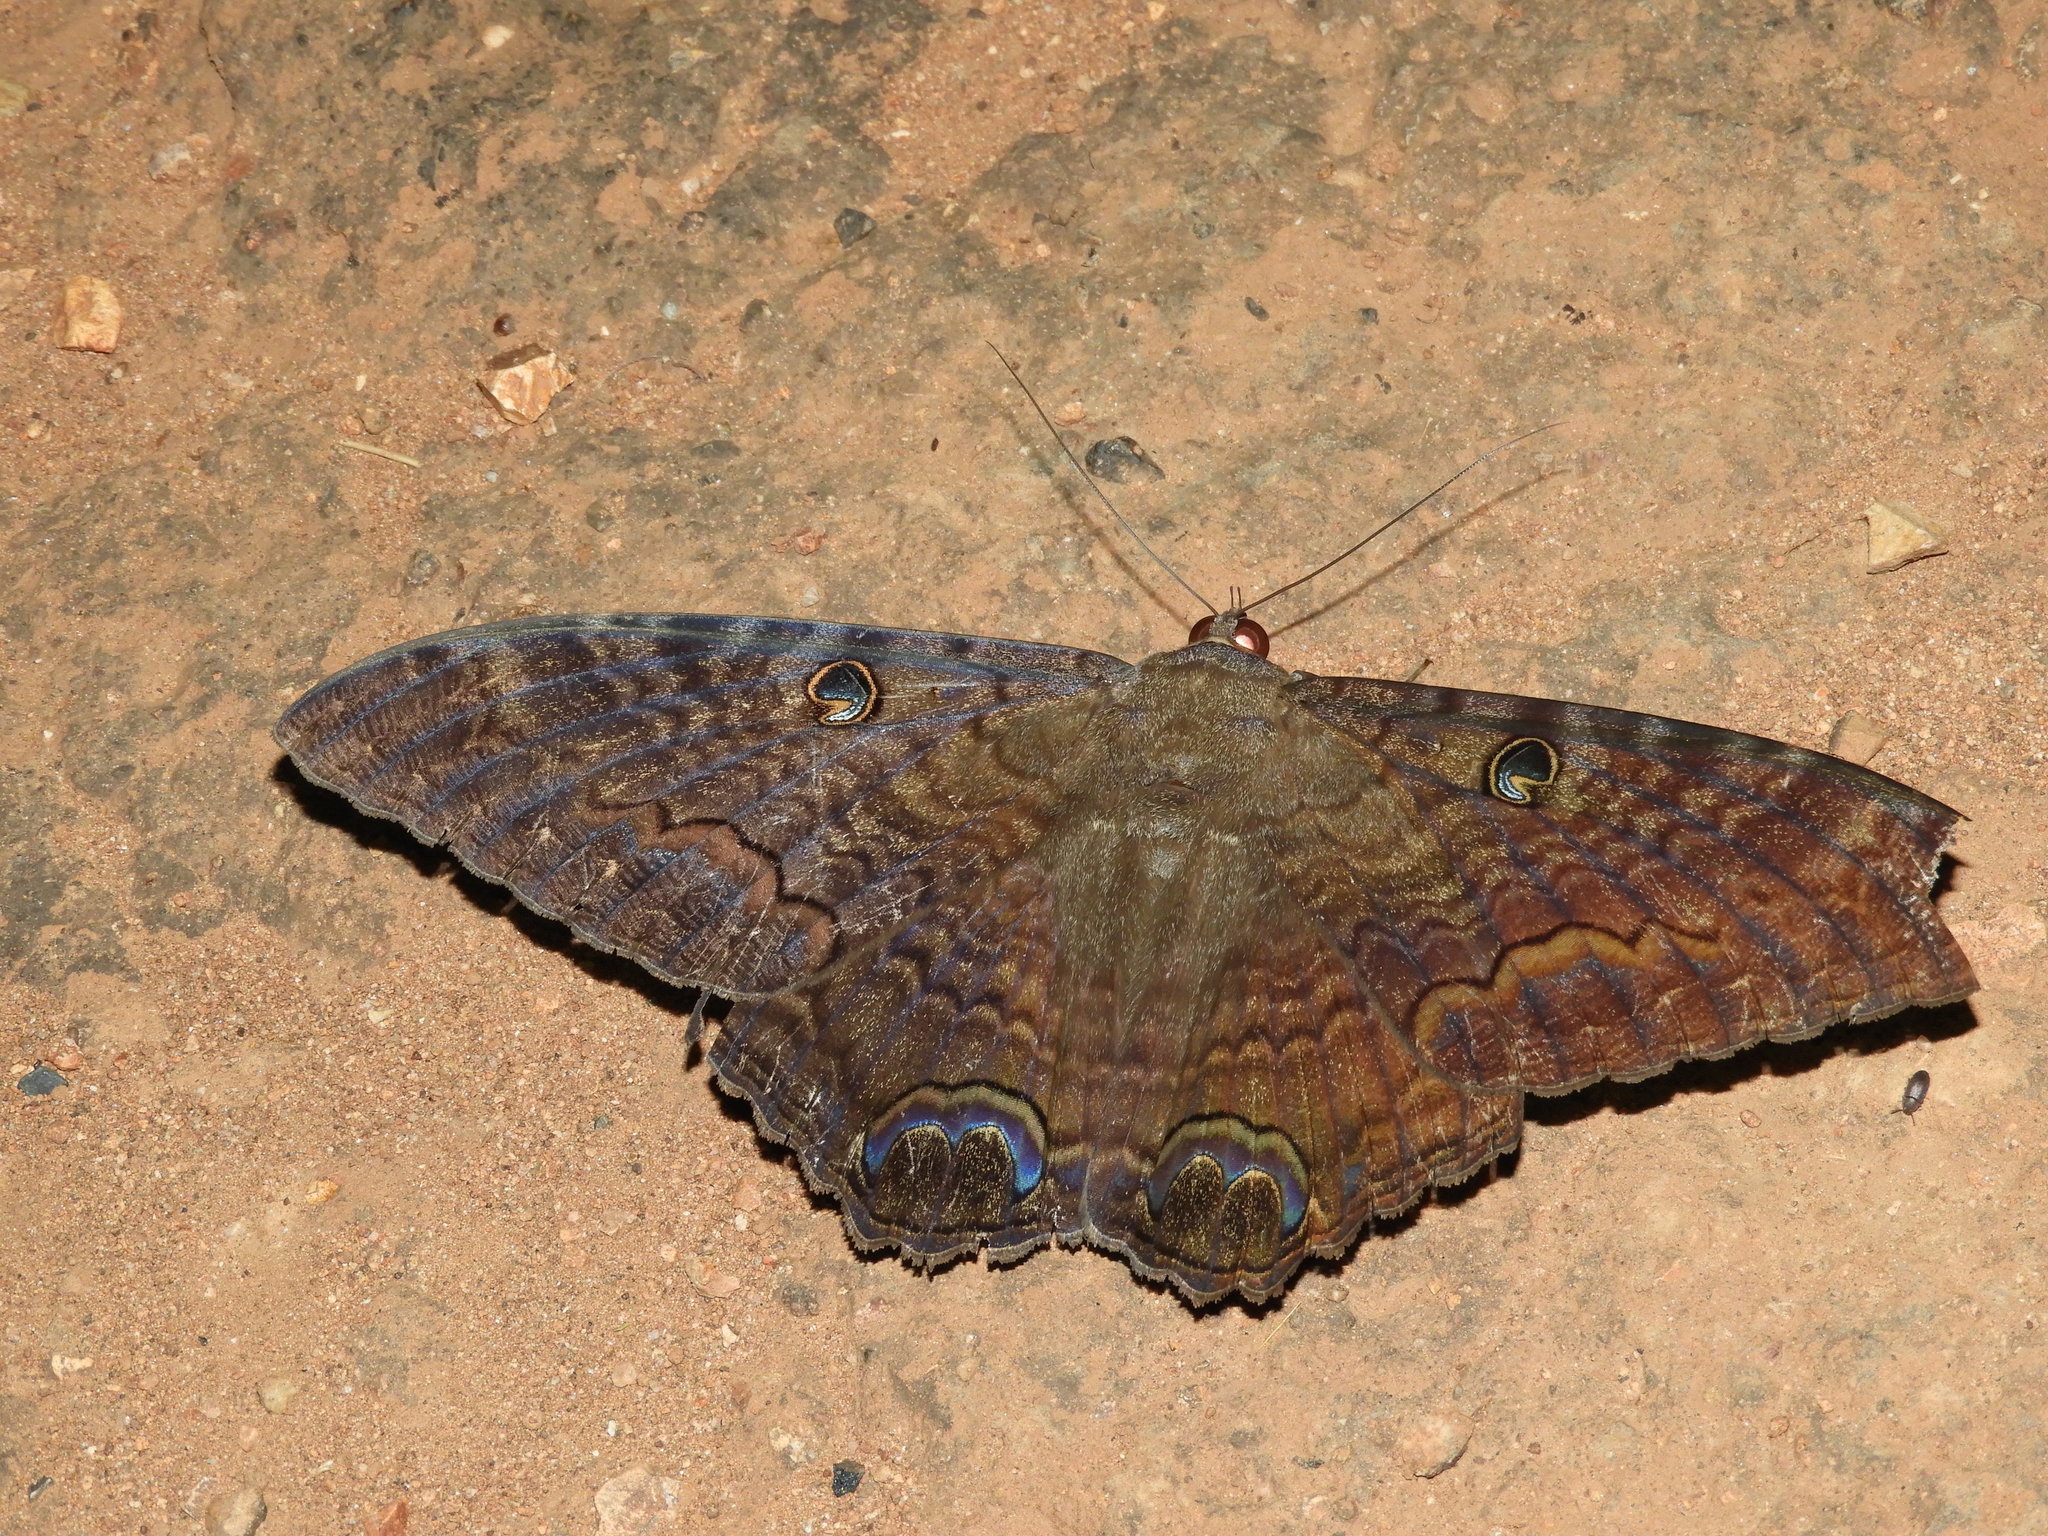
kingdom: Animalia
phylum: Arthropoda
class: Insecta
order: Lepidoptera
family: Erebidae
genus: Ascalapha
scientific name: Ascalapha odorata
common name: Black witch
